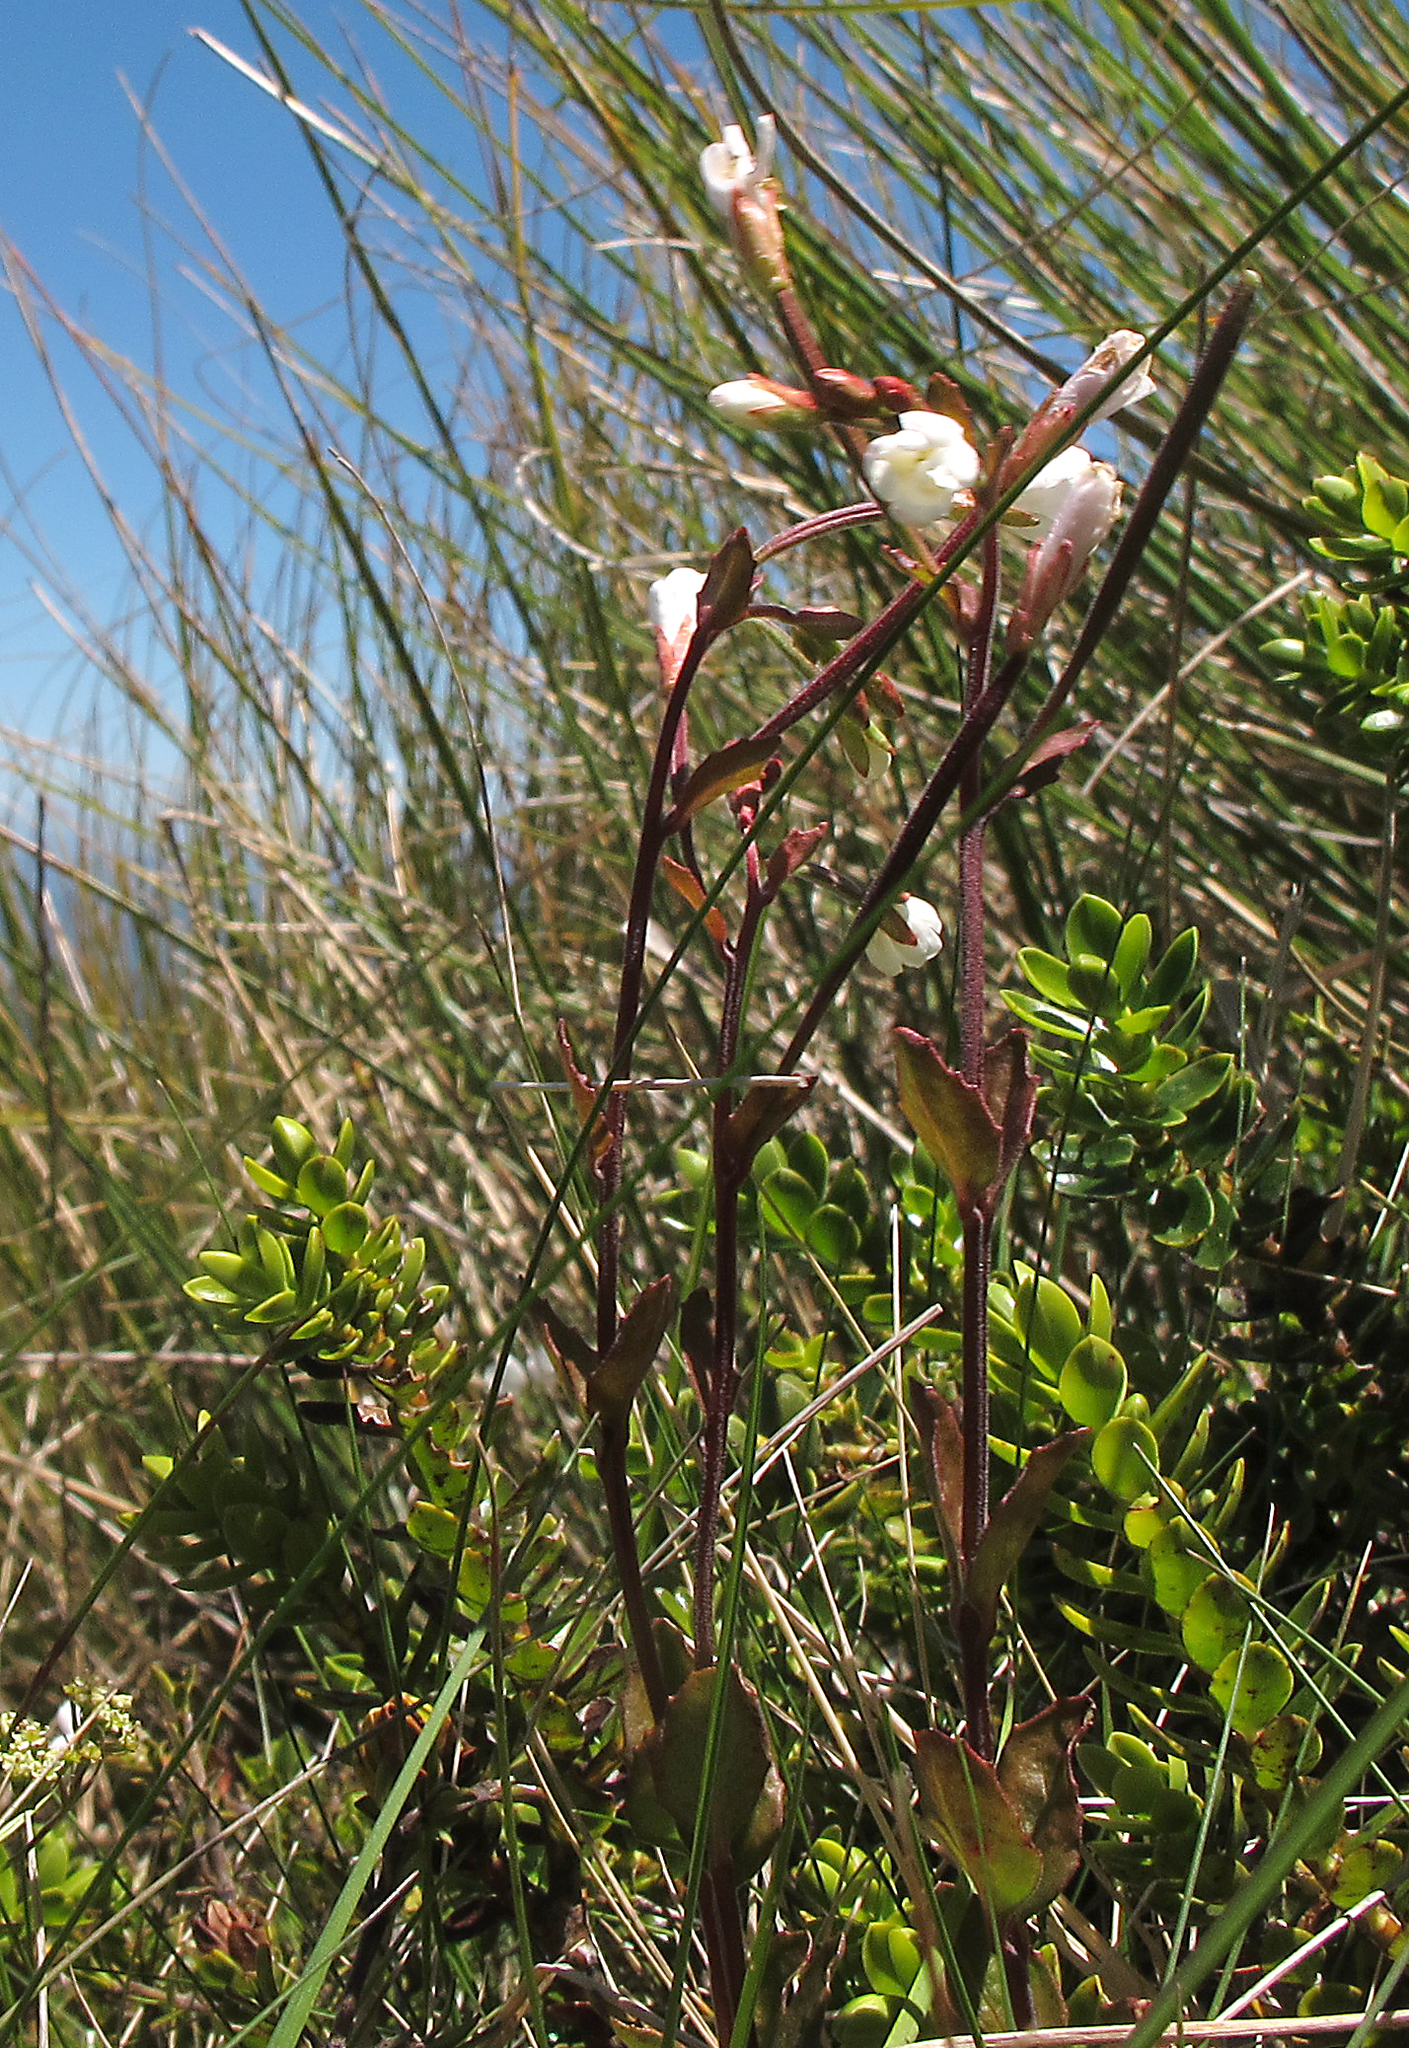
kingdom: Plantae
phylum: Tracheophyta
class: Magnoliopsida
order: Myrtales
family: Onagraceae
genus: Epilobium
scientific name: Epilobium chlorifolium
